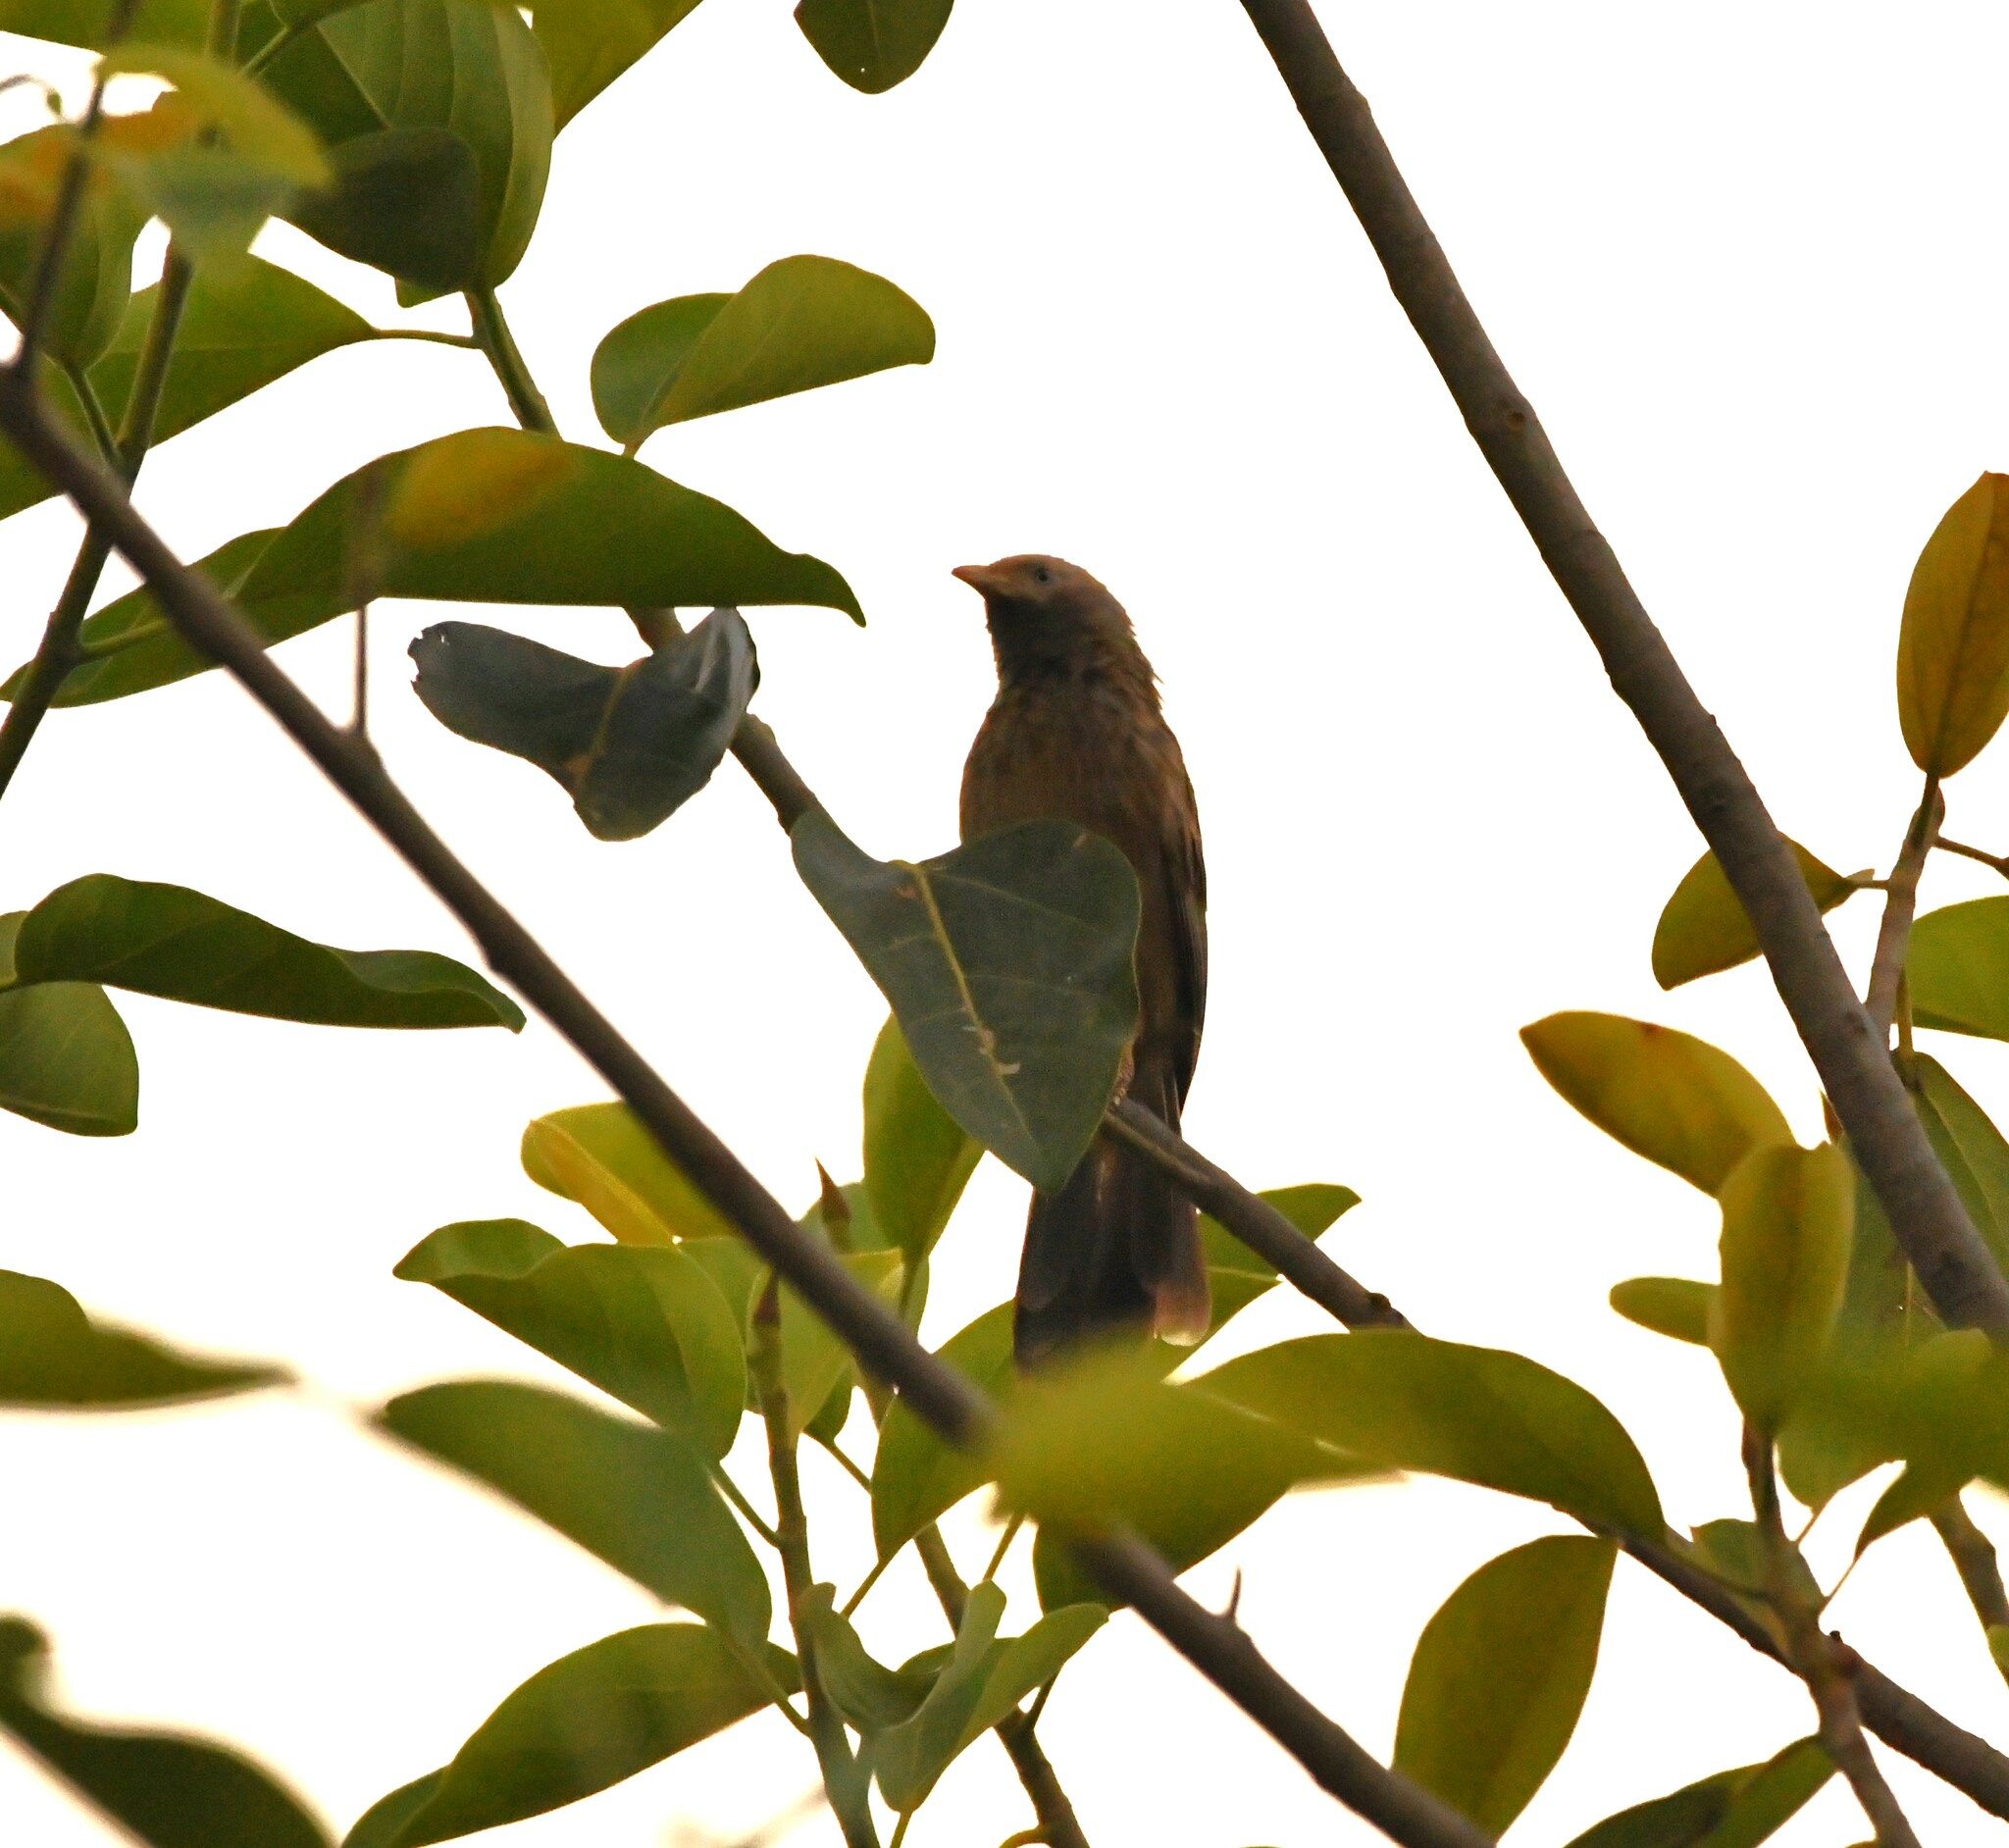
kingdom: Animalia
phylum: Chordata
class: Aves
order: Passeriformes
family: Leiothrichidae
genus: Turdoides
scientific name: Turdoides affinis
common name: Yellow-billed babbler
